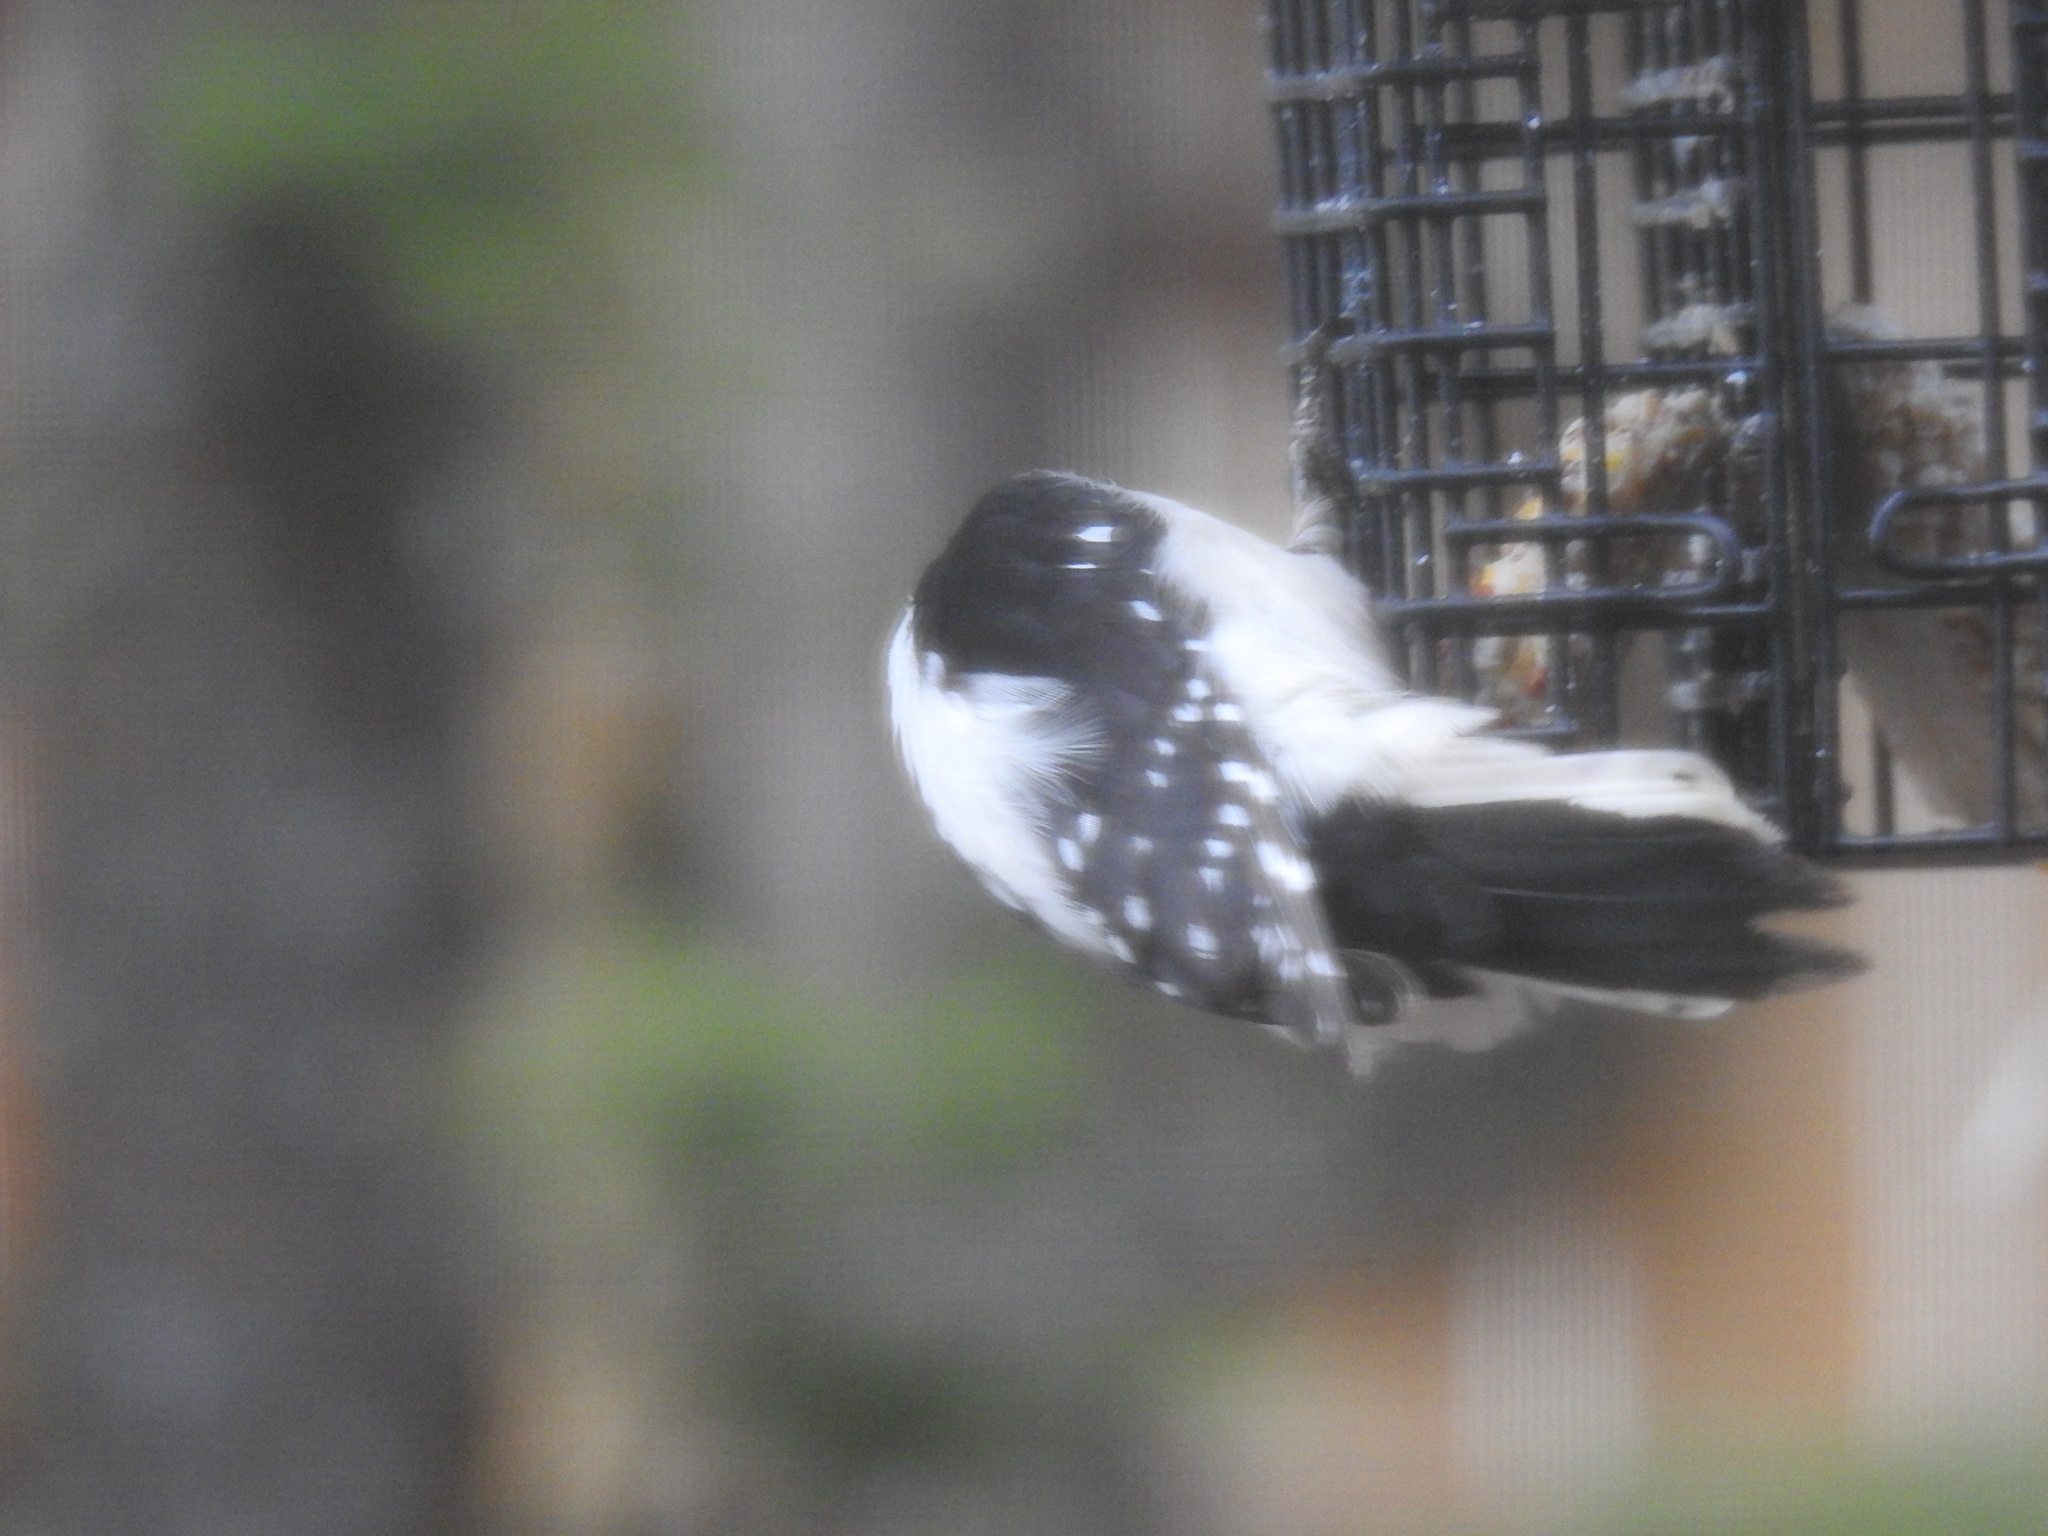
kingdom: Animalia
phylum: Chordata
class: Aves
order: Piciformes
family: Picidae
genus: Dryobates
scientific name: Dryobates pubescens
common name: Downy woodpecker
